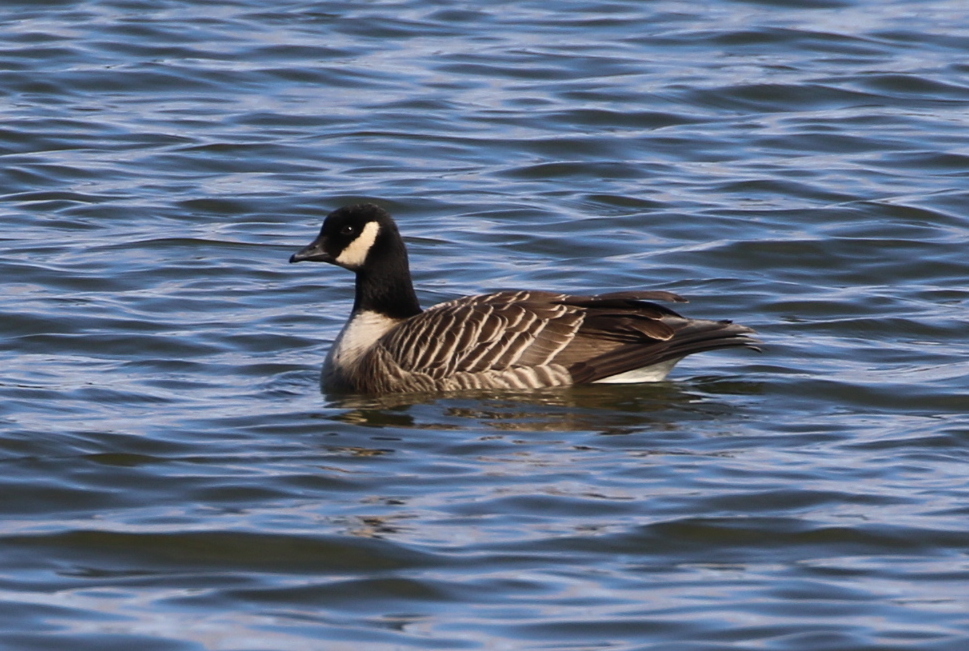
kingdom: Animalia
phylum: Chordata
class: Aves
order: Anseriformes
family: Anatidae
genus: Branta
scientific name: Branta hutchinsii
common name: Cackling goose
